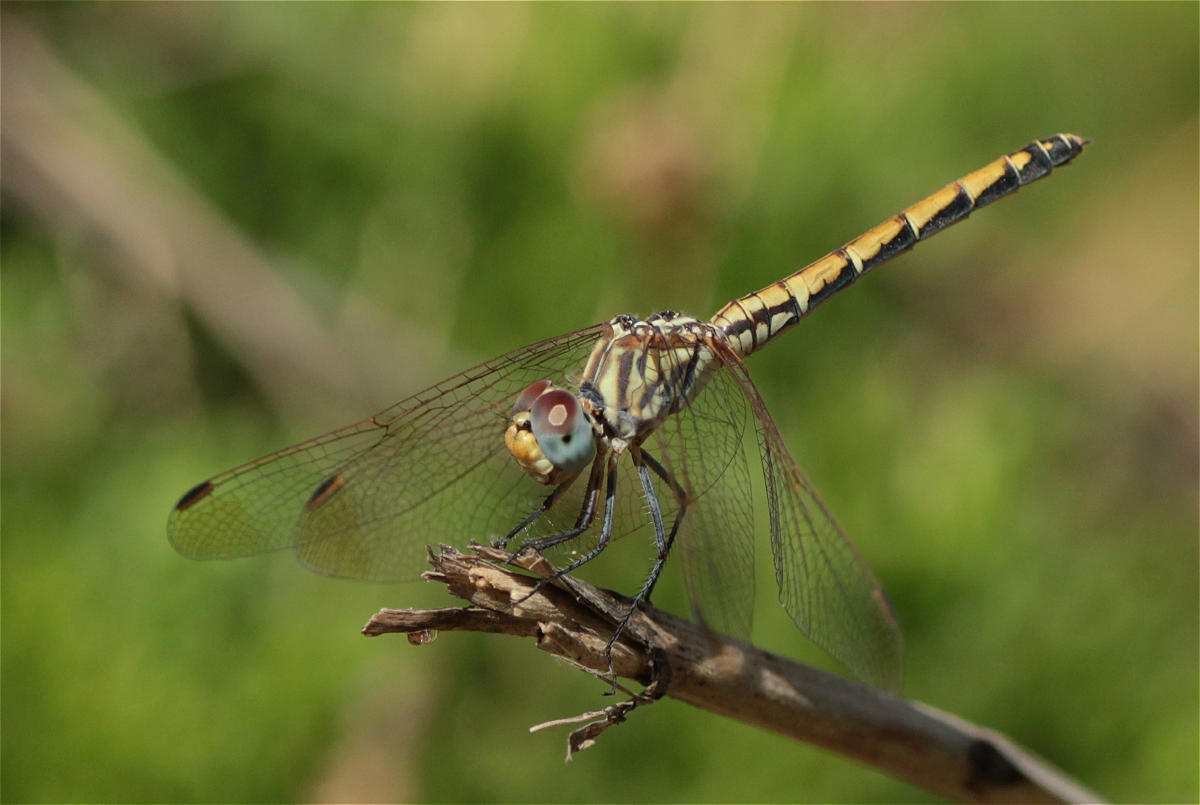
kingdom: Animalia
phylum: Arthropoda
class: Insecta
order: Odonata
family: Libellulidae
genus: Trithemis
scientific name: Trithemis arteriosa
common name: Red-veined dropwing
